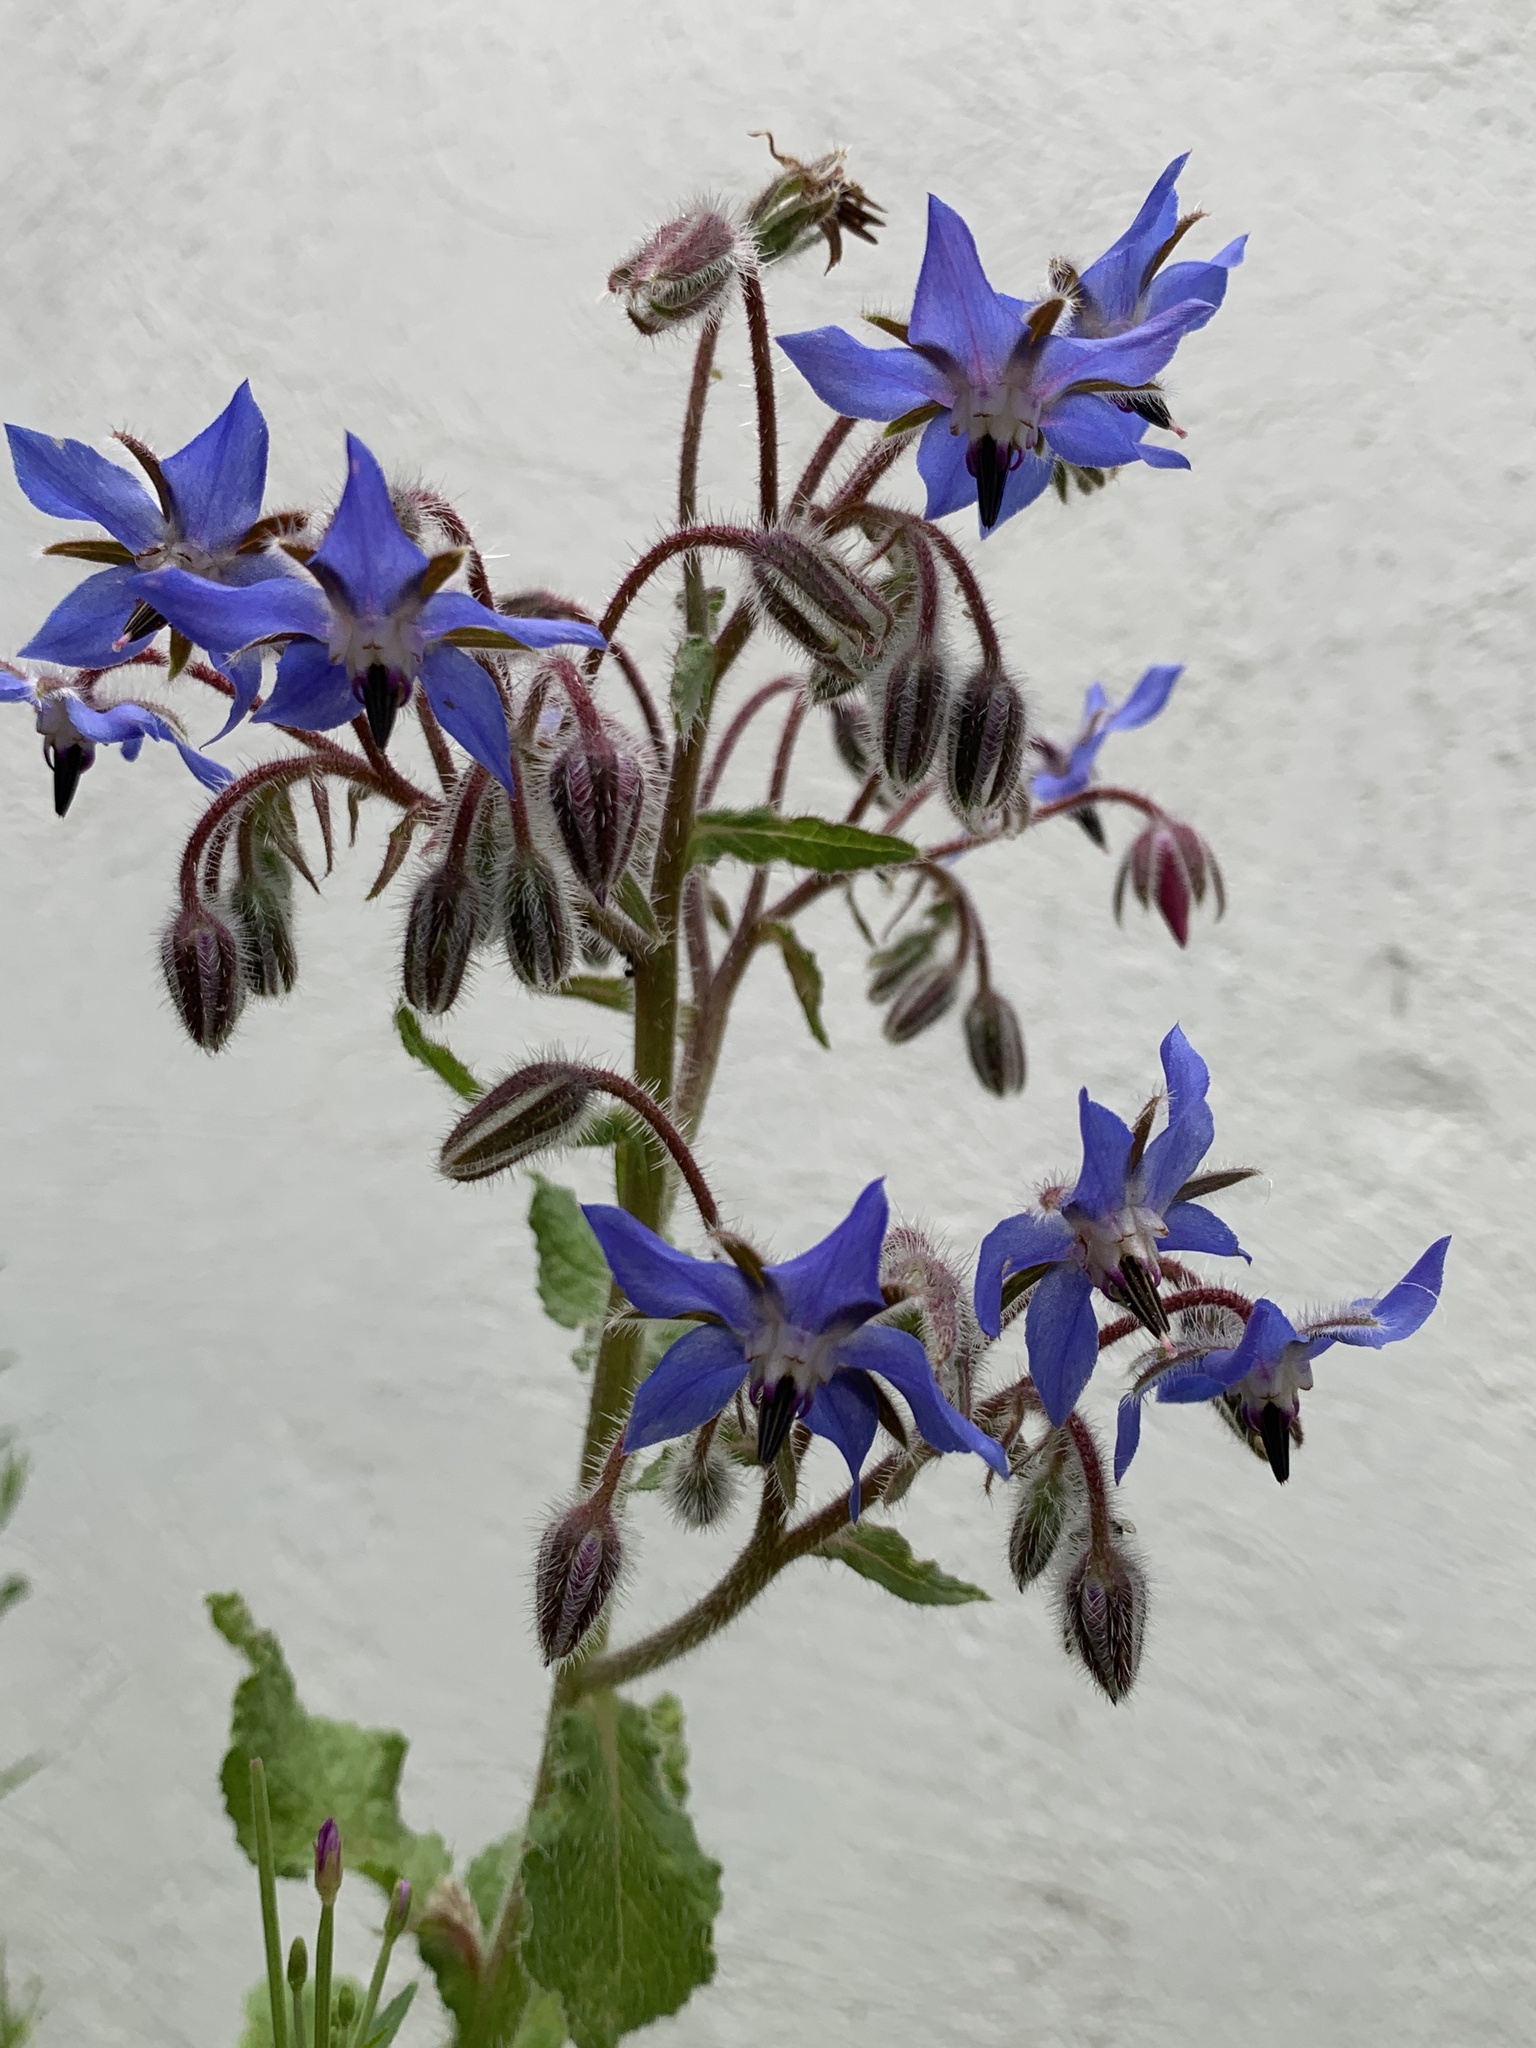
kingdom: Plantae
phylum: Tracheophyta
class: Magnoliopsida
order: Boraginales
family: Boraginaceae
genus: Borago
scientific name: Borago officinalis
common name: Borage
